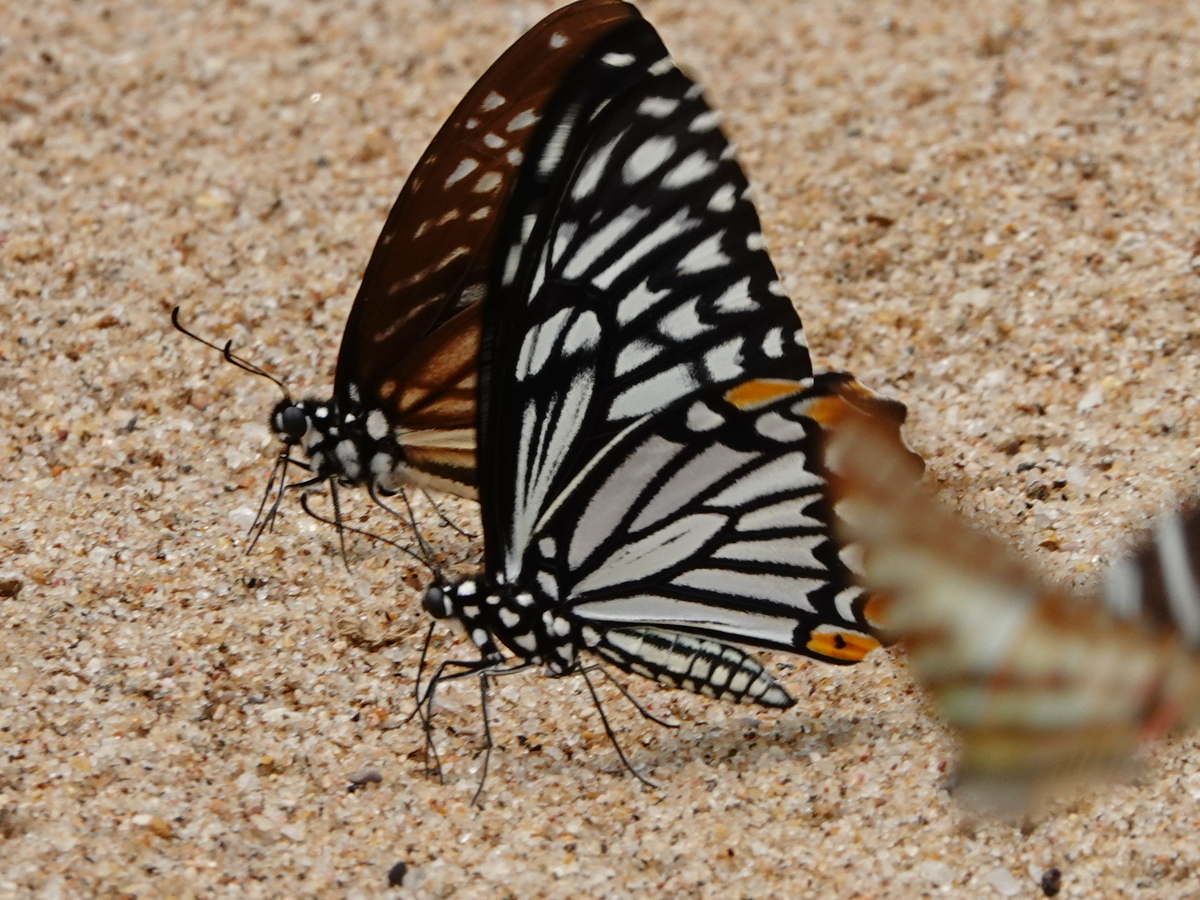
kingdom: Animalia
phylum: Arthropoda
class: Insecta
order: Lepidoptera
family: Papilionidae
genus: Chilasa
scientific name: Chilasa clytia
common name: Common mime
